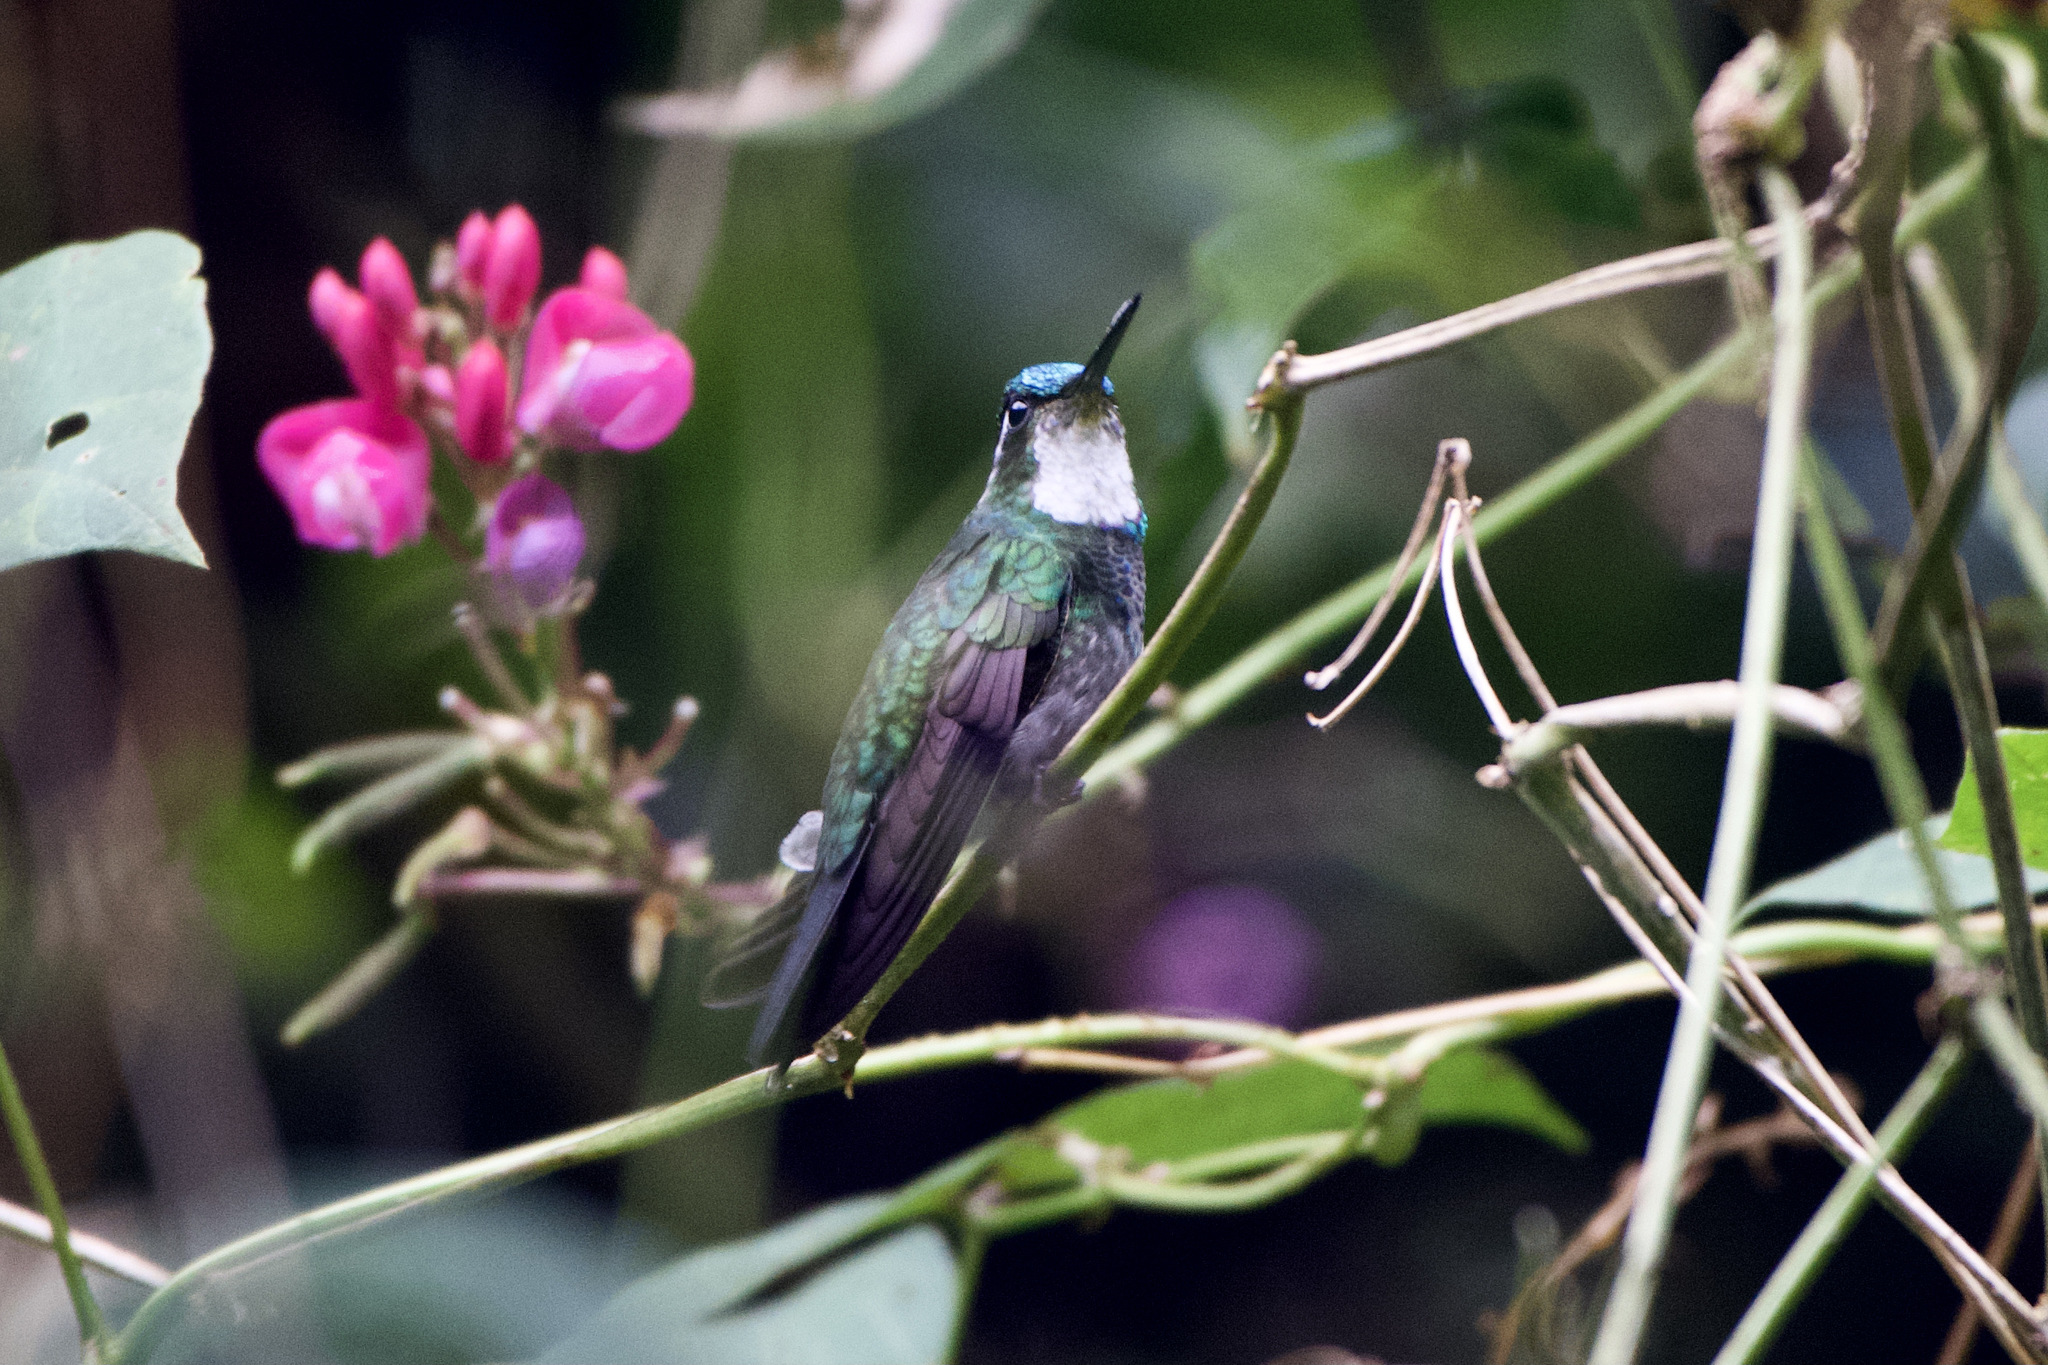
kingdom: Animalia
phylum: Chordata
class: Aves
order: Apodiformes
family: Trochilidae
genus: Lampornis
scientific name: Lampornis castaneoventris
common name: White-throated mountain-gem
